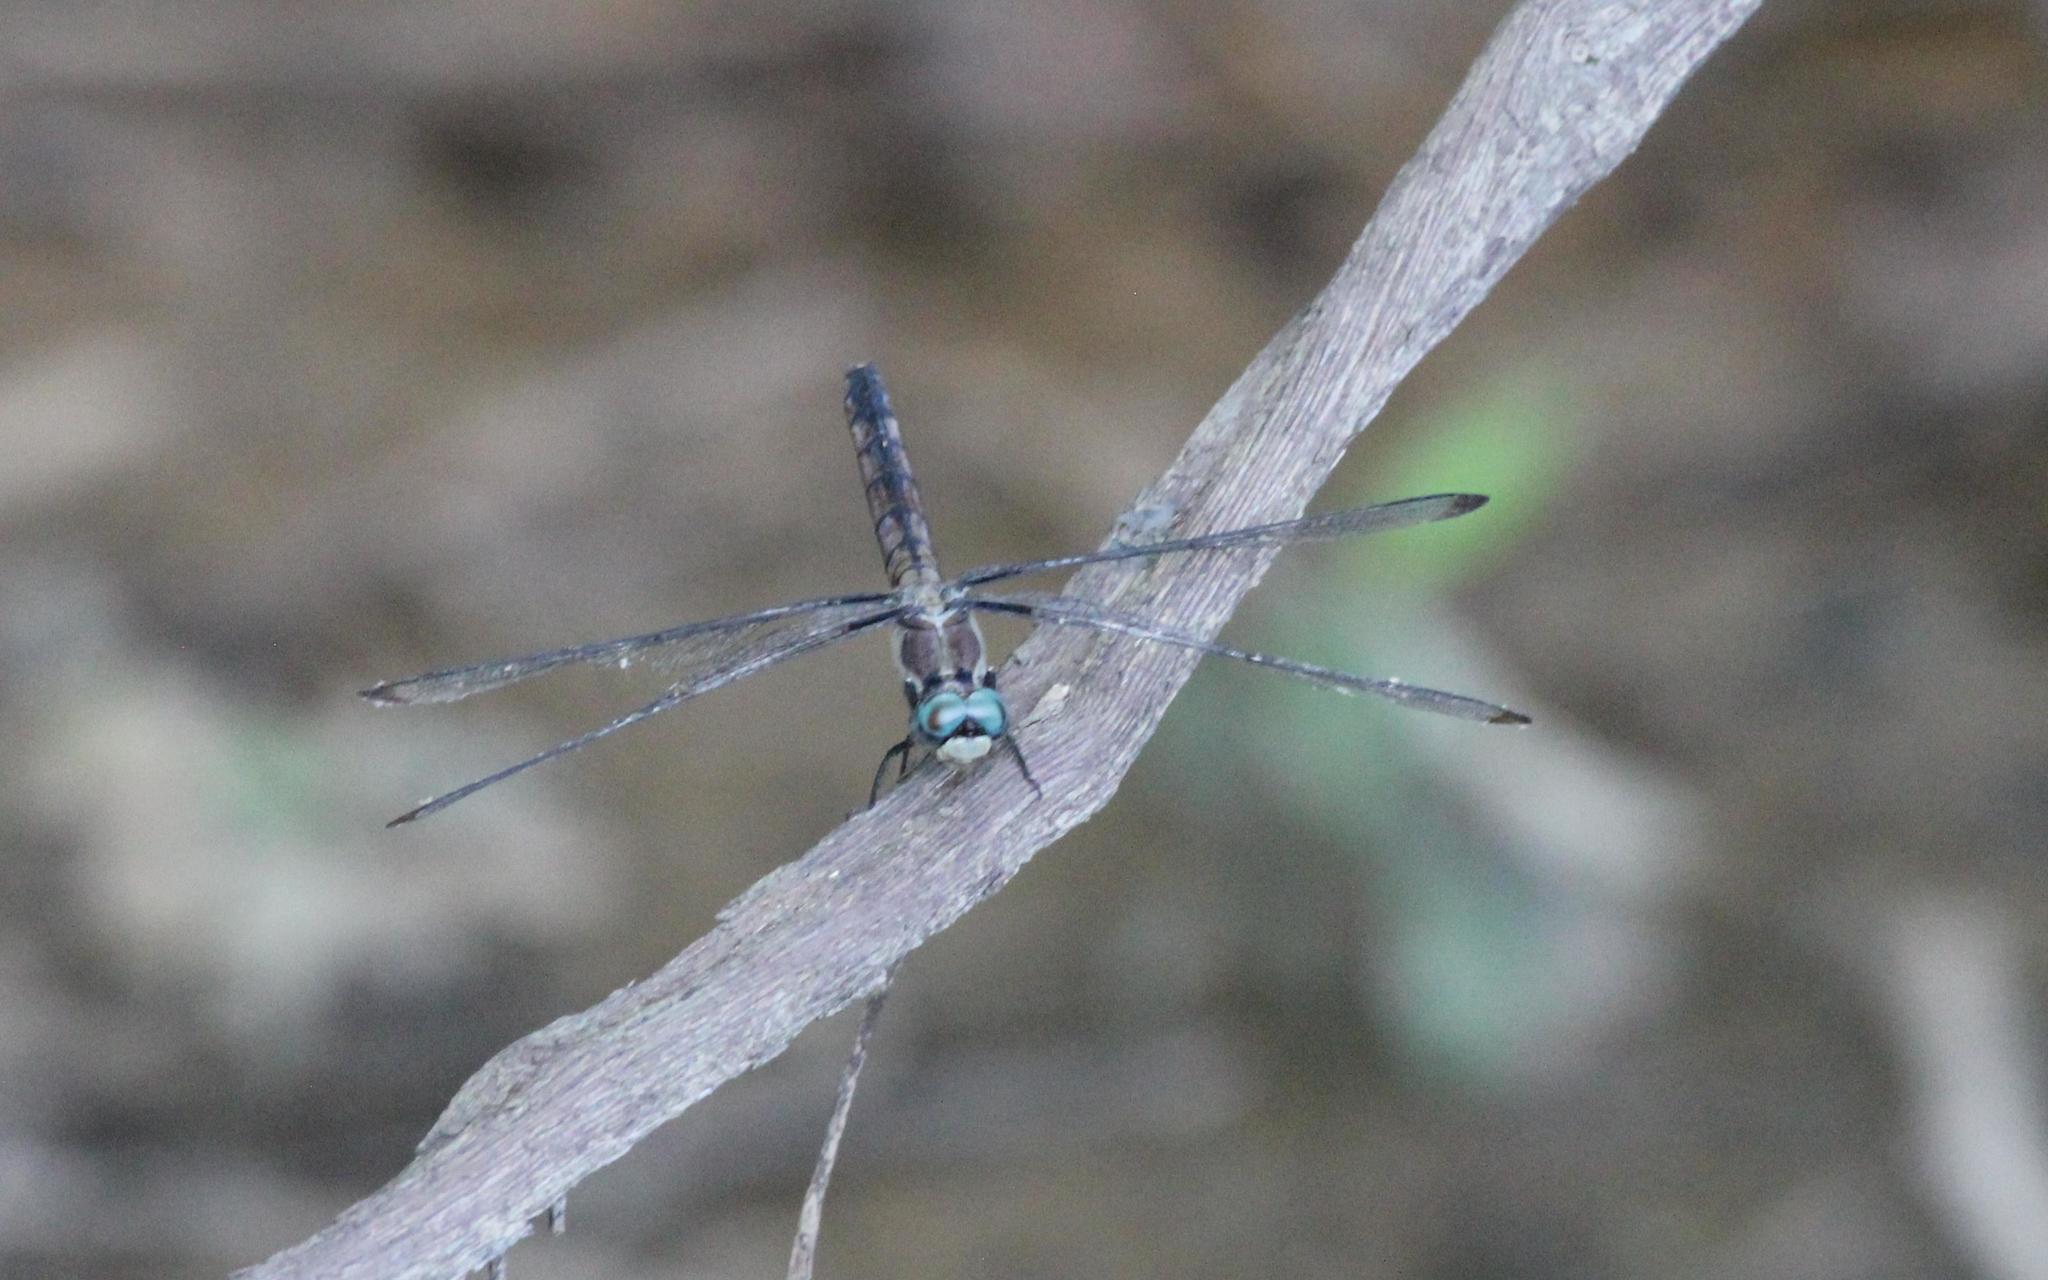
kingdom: Animalia
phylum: Arthropoda
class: Insecta
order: Odonata
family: Libellulidae
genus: Libellula
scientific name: Libellula vibrans
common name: Great blue skimmer
